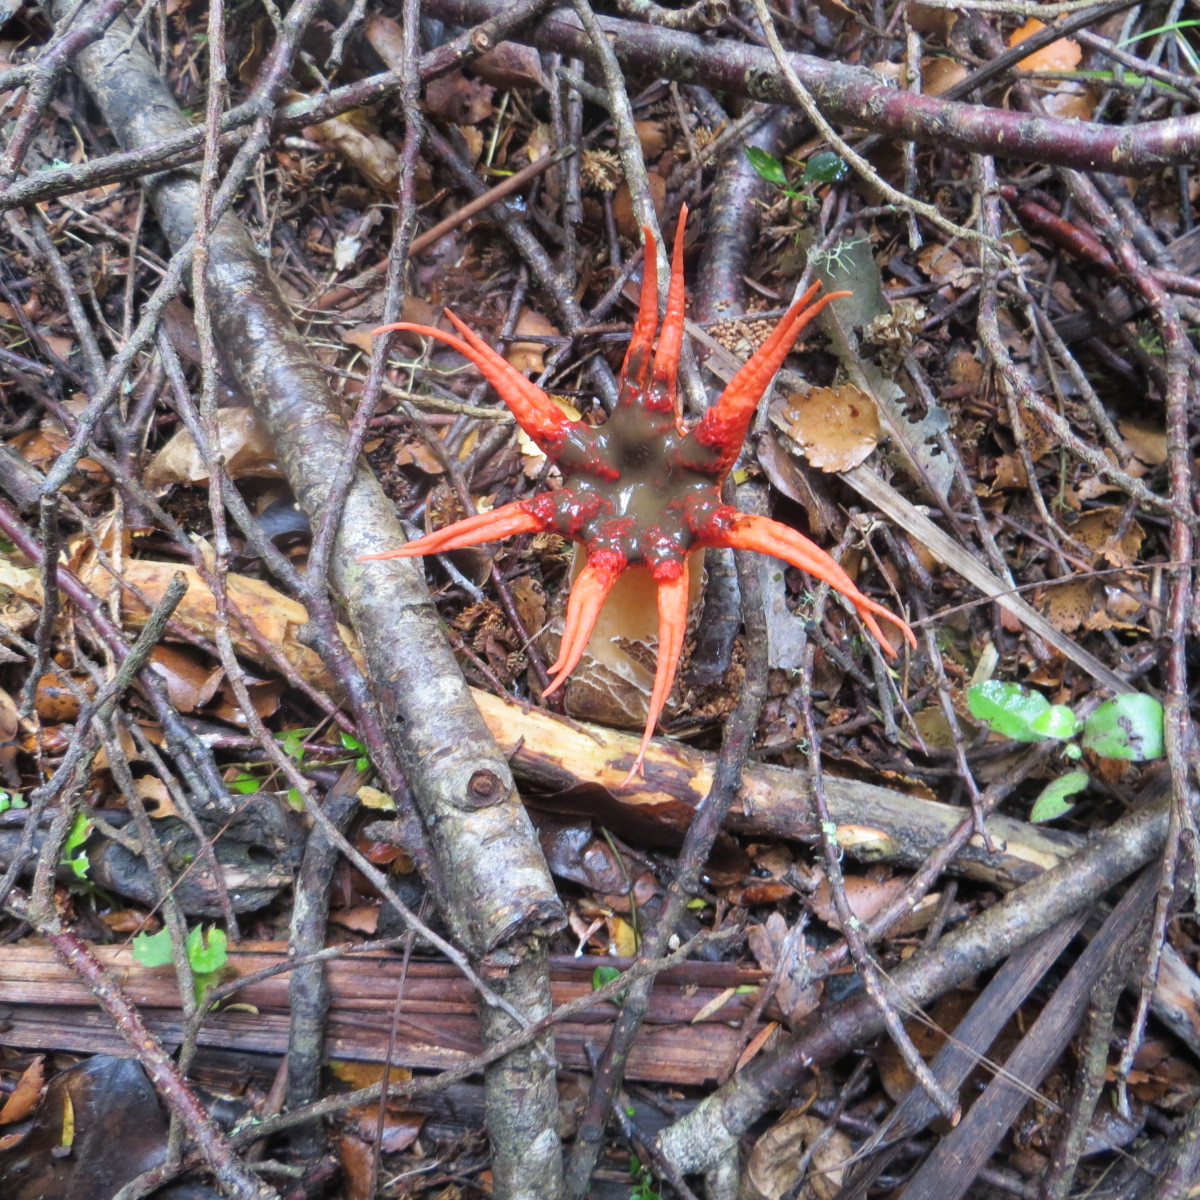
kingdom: Fungi
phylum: Basidiomycota
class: Agaricomycetes
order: Phallales
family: Phallaceae
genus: Aseroe
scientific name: Aseroe rubra
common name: Starfish fungus
